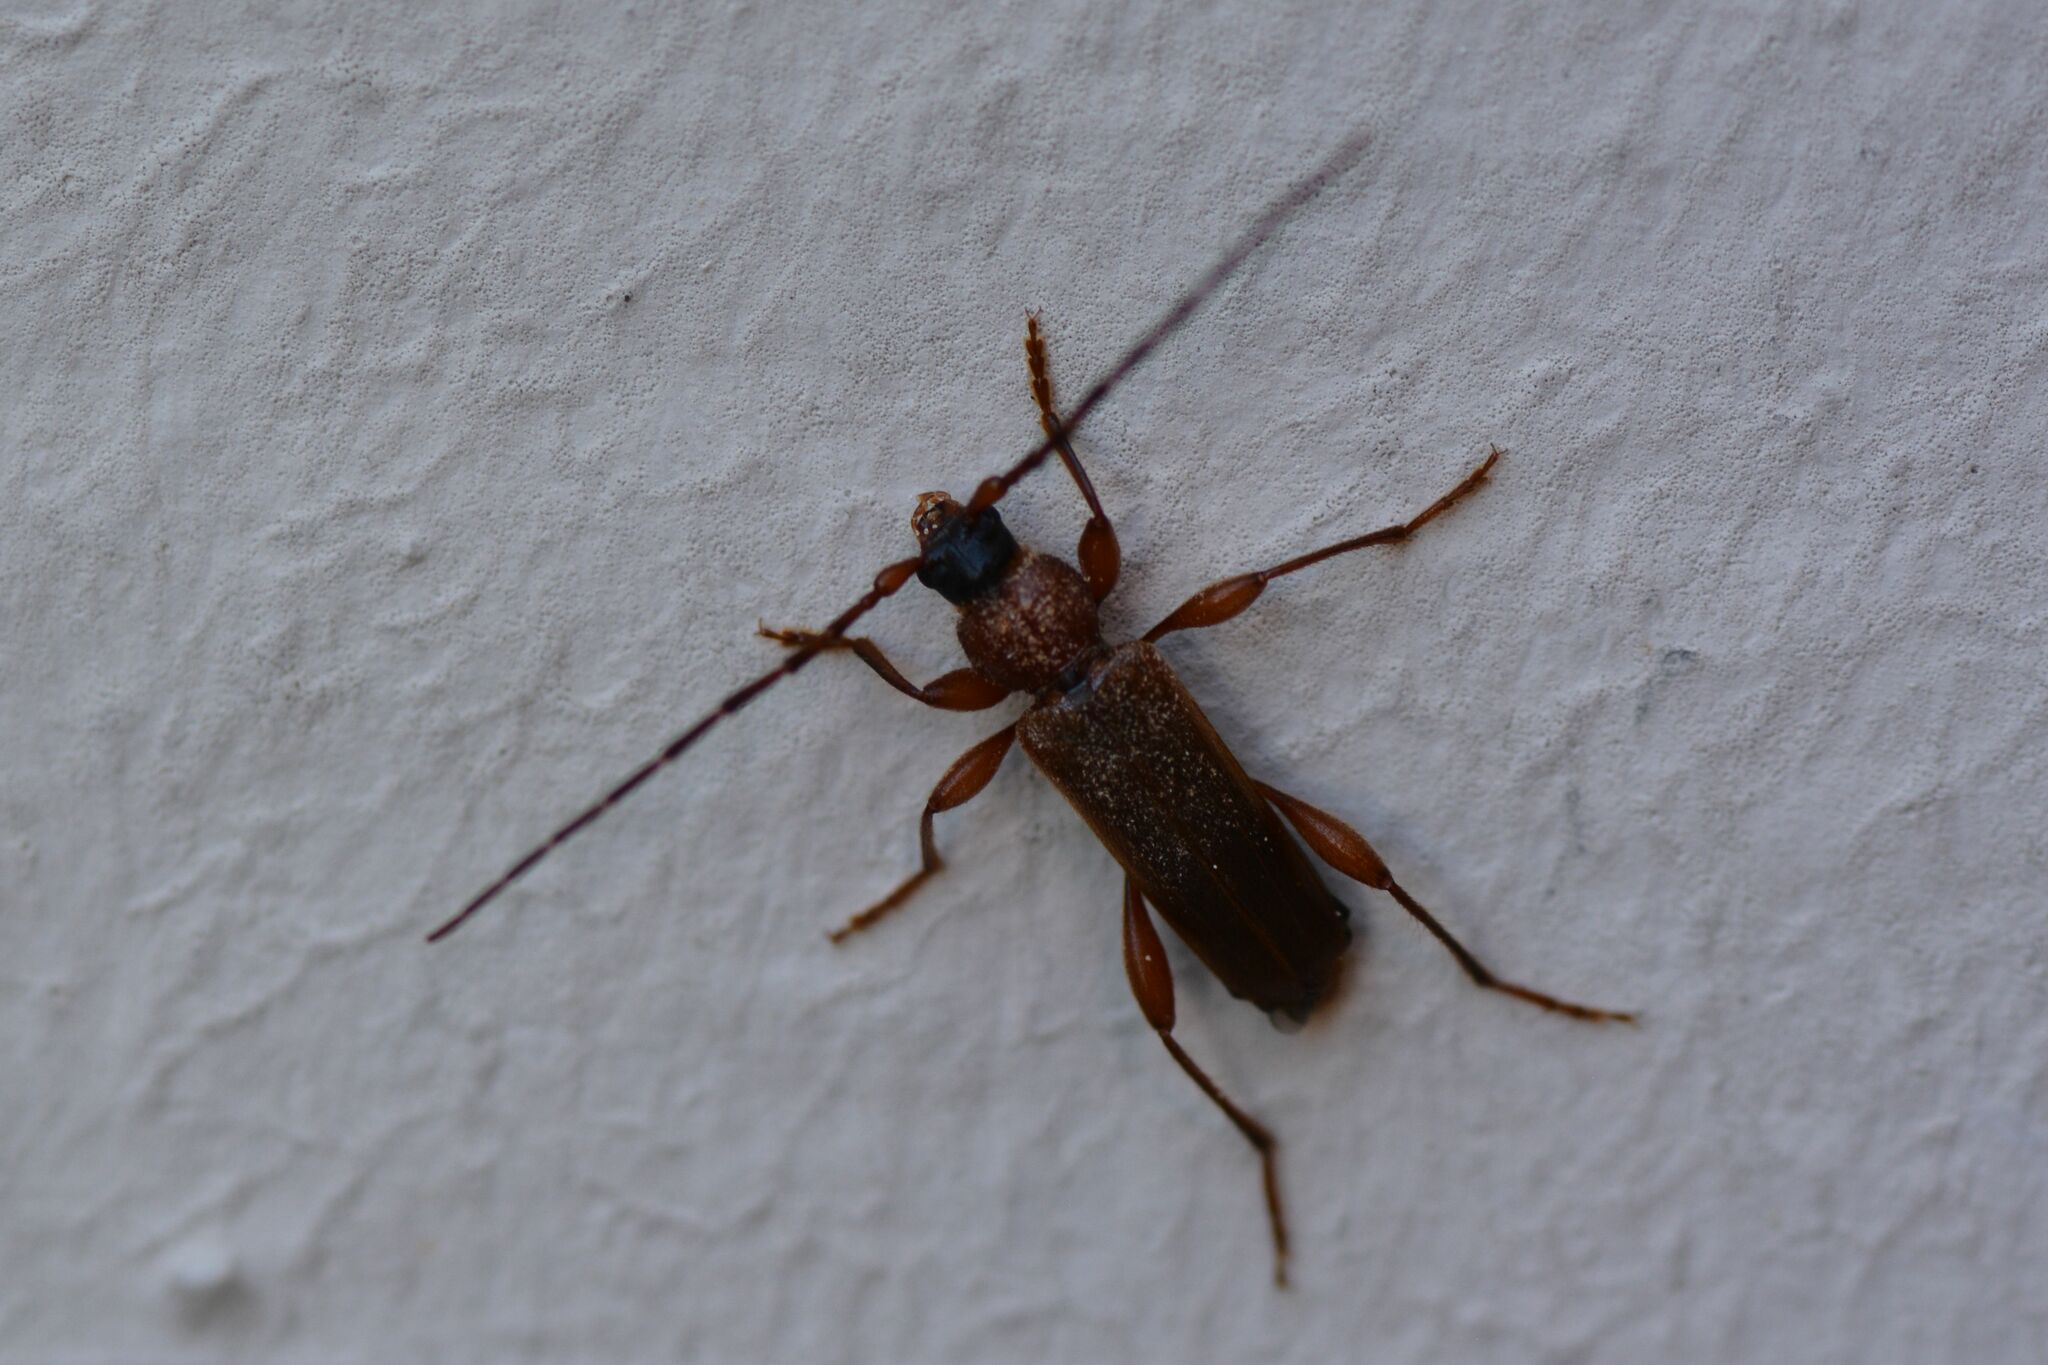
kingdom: Animalia
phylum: Arthropoda
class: Insecta
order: Coleoptera
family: Cerambycidae
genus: Phymatodes
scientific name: Phymatodes testaceus
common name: Long-horned beetle
